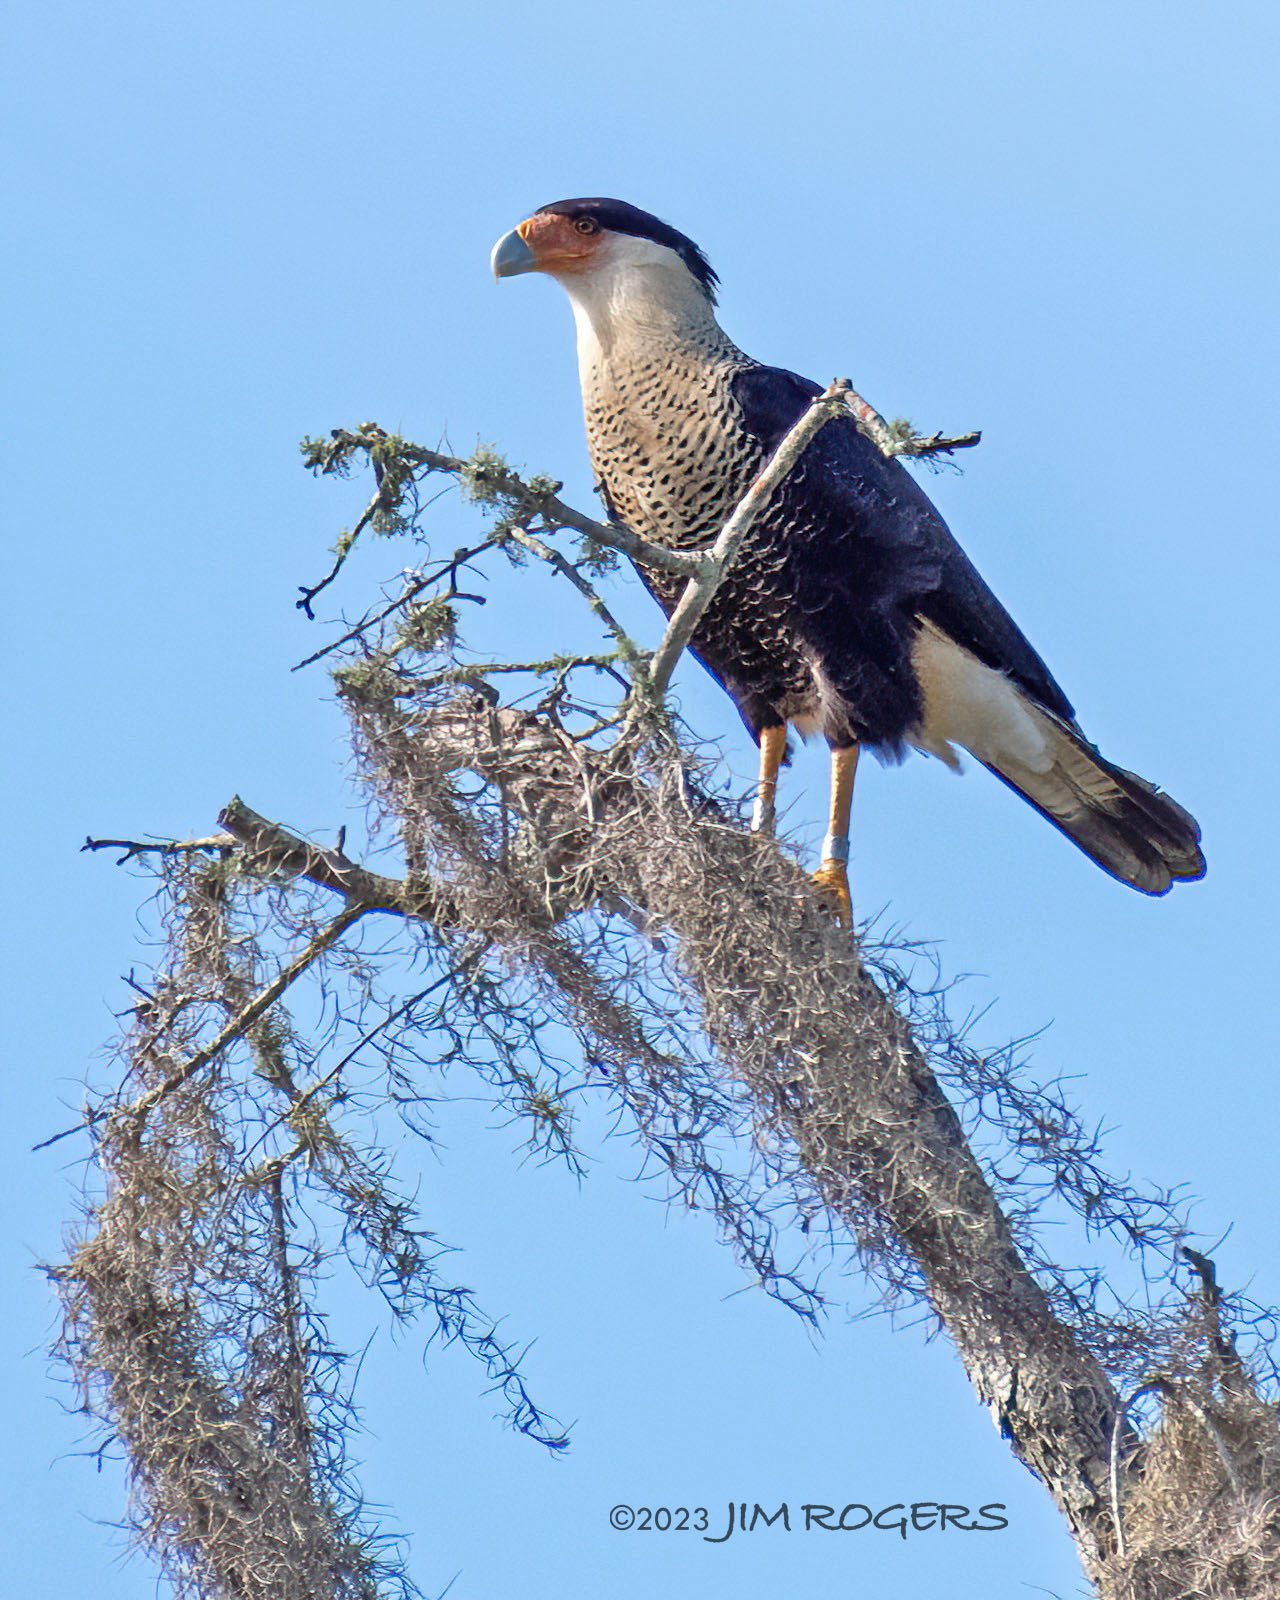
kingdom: Animalia
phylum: Chordata
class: Aves
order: Falconiformes
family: Falconidae
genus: Caracara
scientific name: Caracara plancus
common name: Southern caracara
